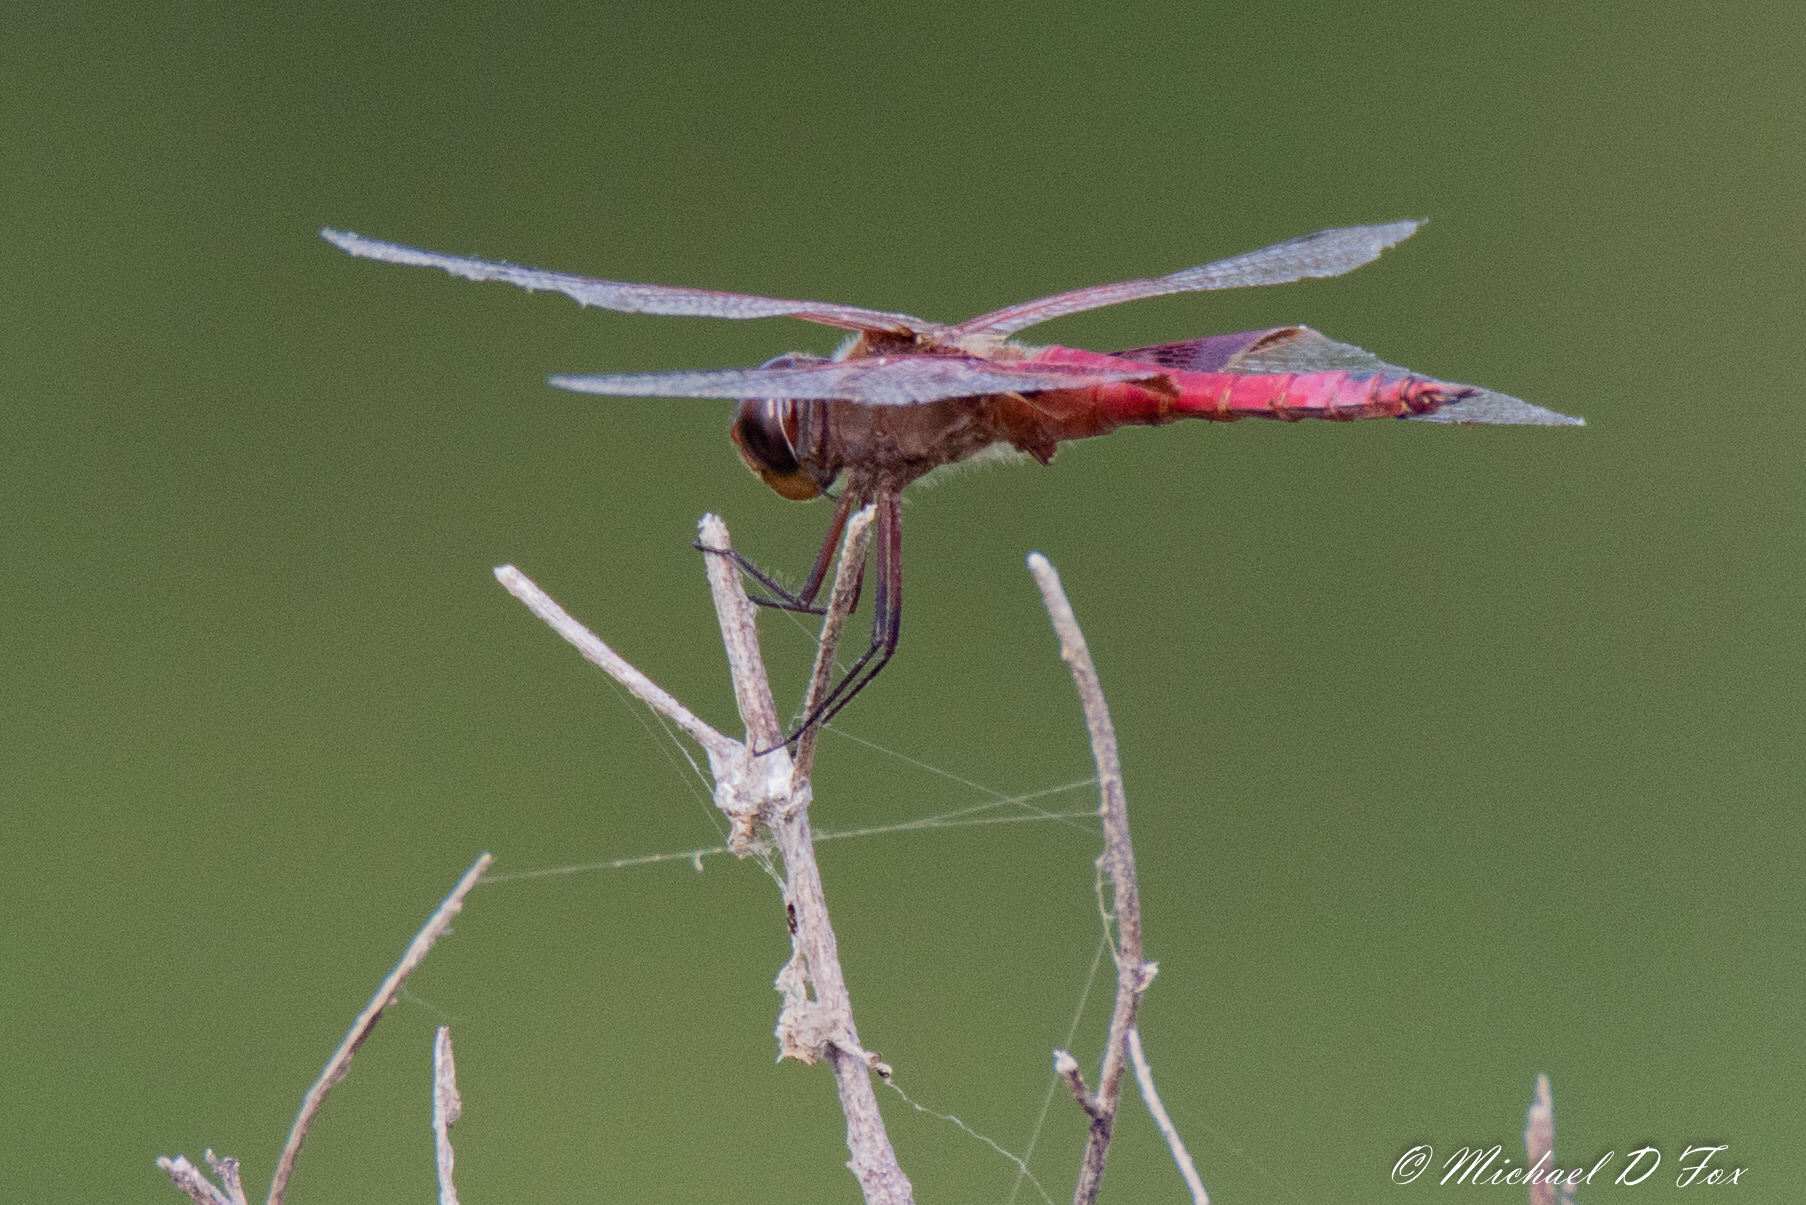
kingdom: Animalia
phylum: Arthropoda
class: Insecta
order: Odonata
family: Libellulidae
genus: Tramea
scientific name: Tramea onusta
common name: Red saddlebags
